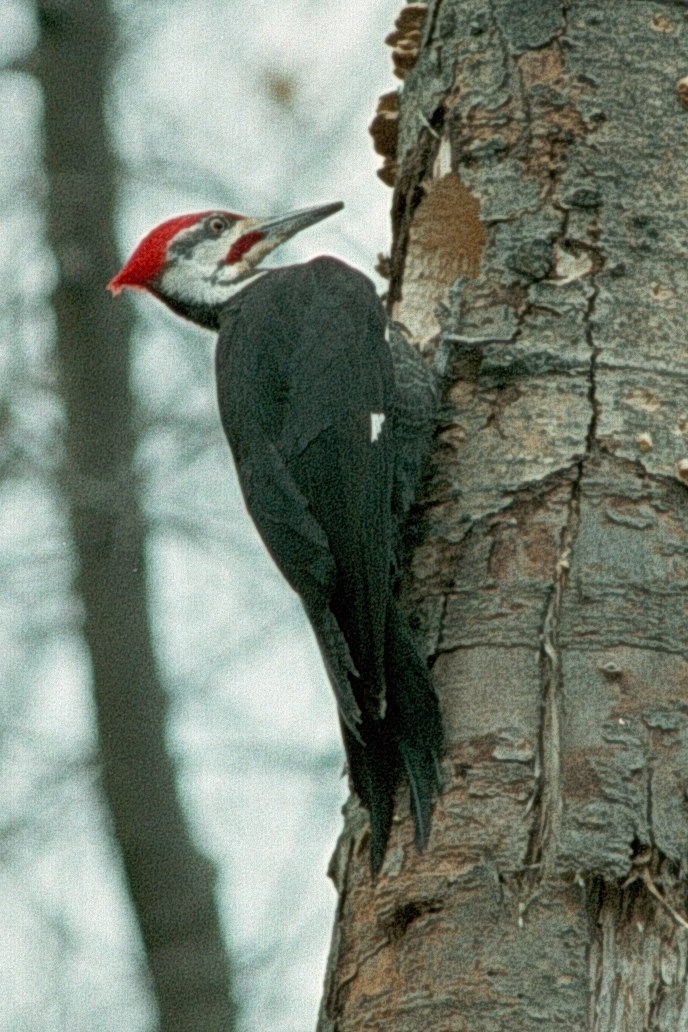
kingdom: Animalia
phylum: Chordata
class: Aves
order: Piciformes
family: Picidae
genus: Dryocopus
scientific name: Dryocopus pileatus
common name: Pileated woodpecker
